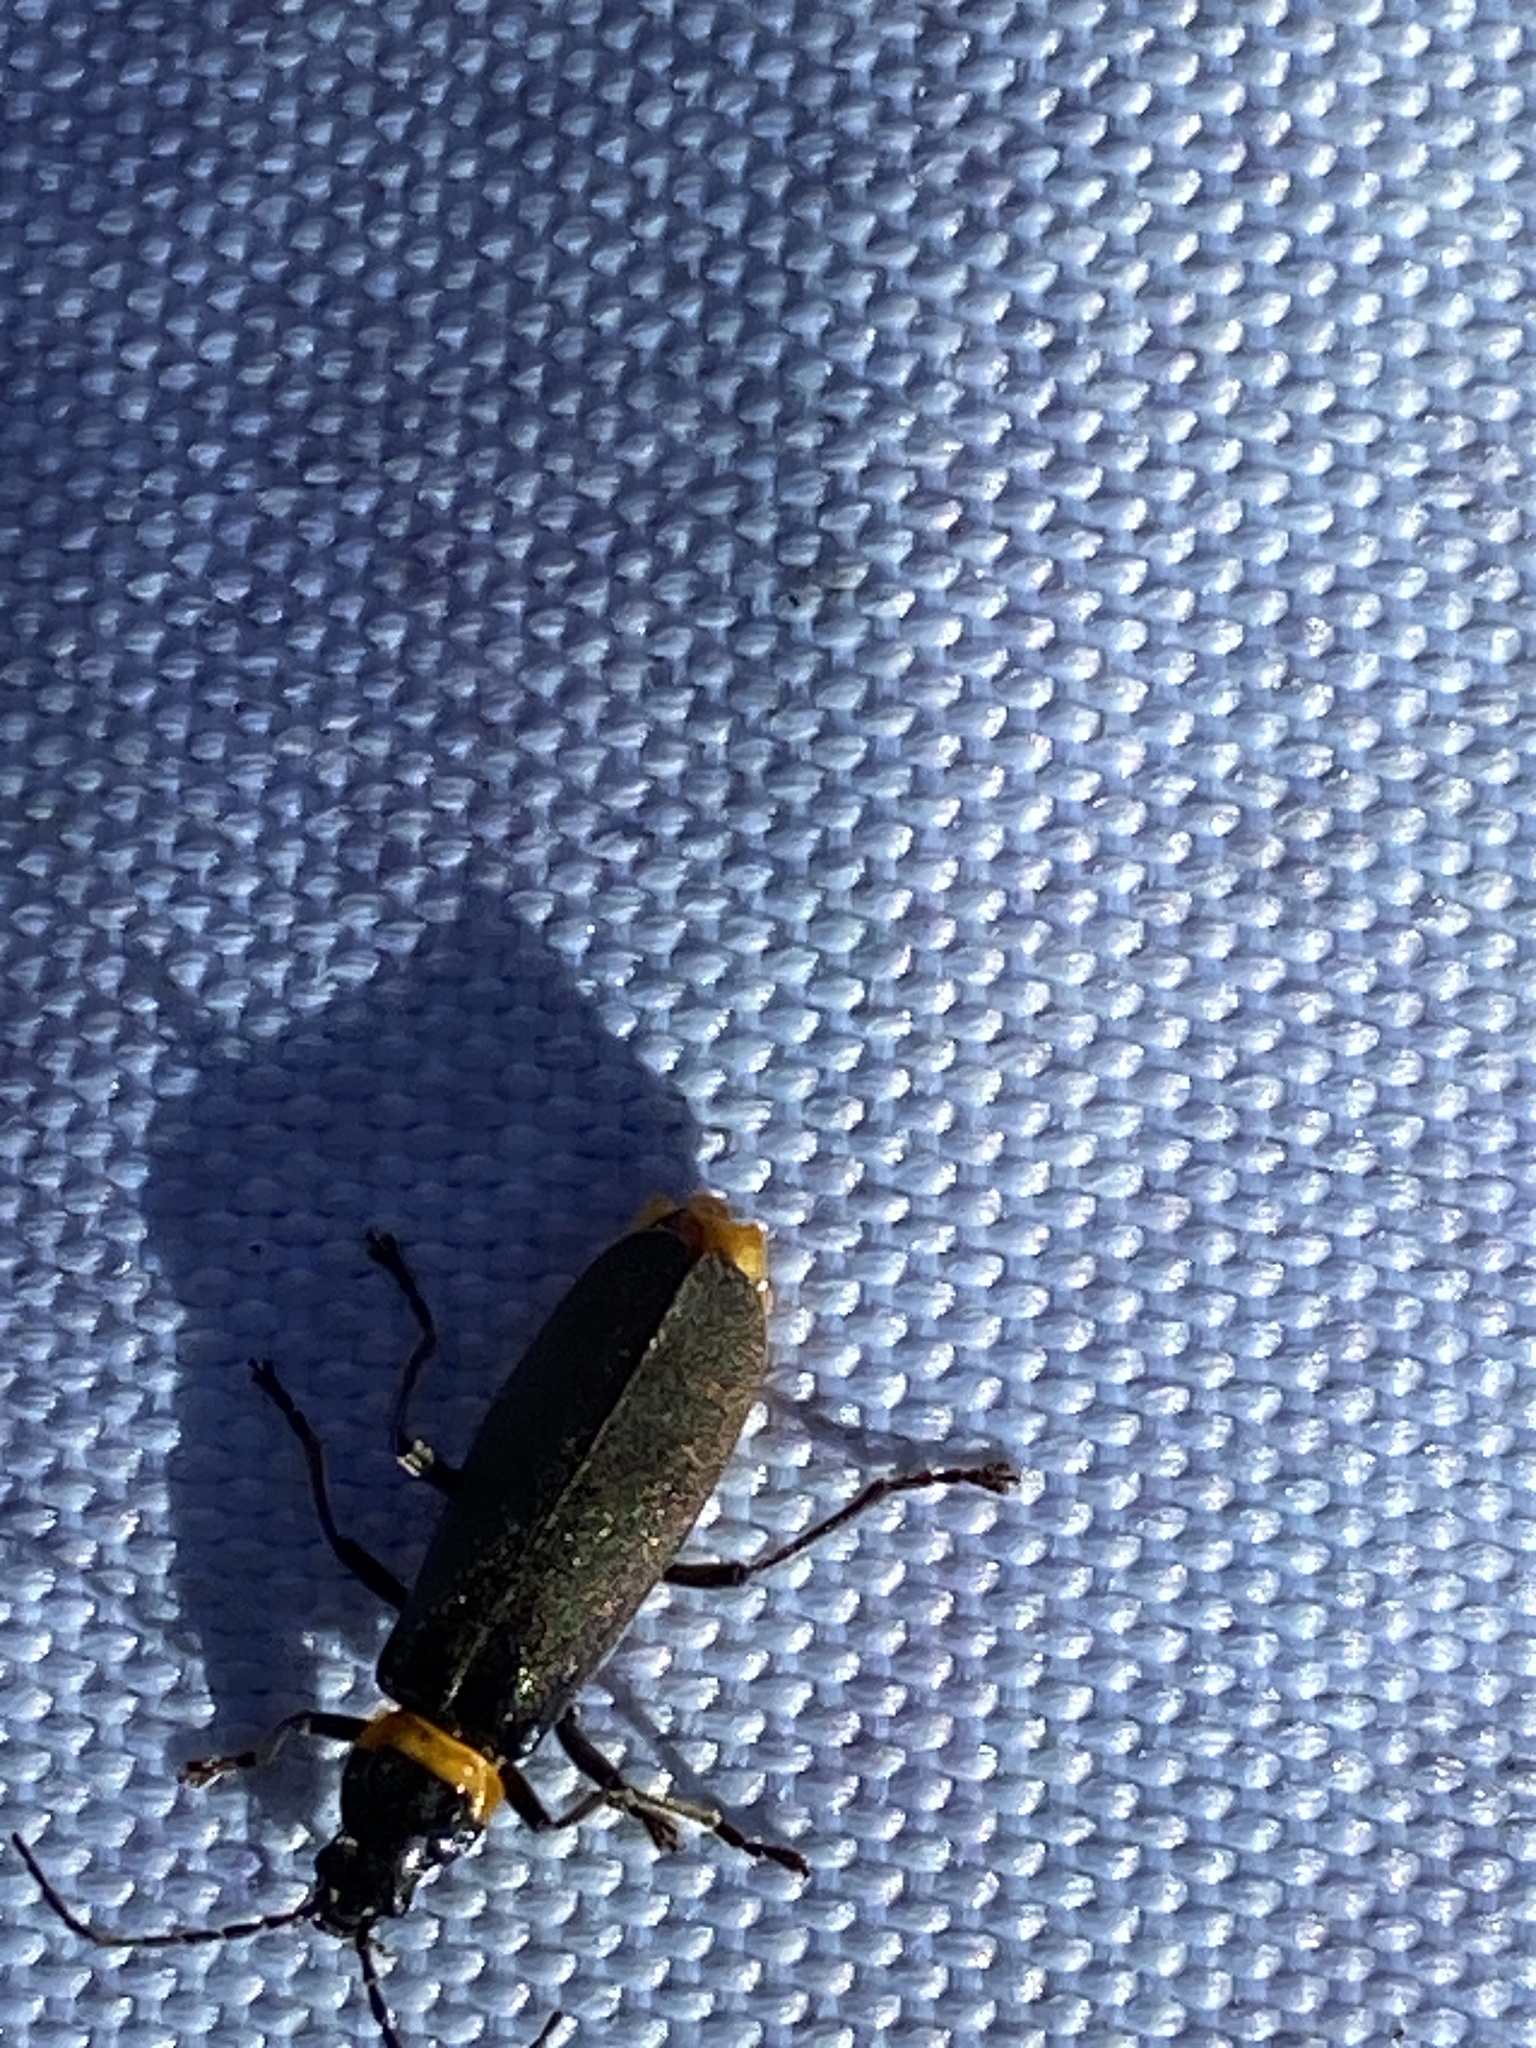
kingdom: Animalia
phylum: Arthropoda
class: Insecta
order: Coleoptera
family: Cantharidae
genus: Chauliognathus
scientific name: Chauliognathus
